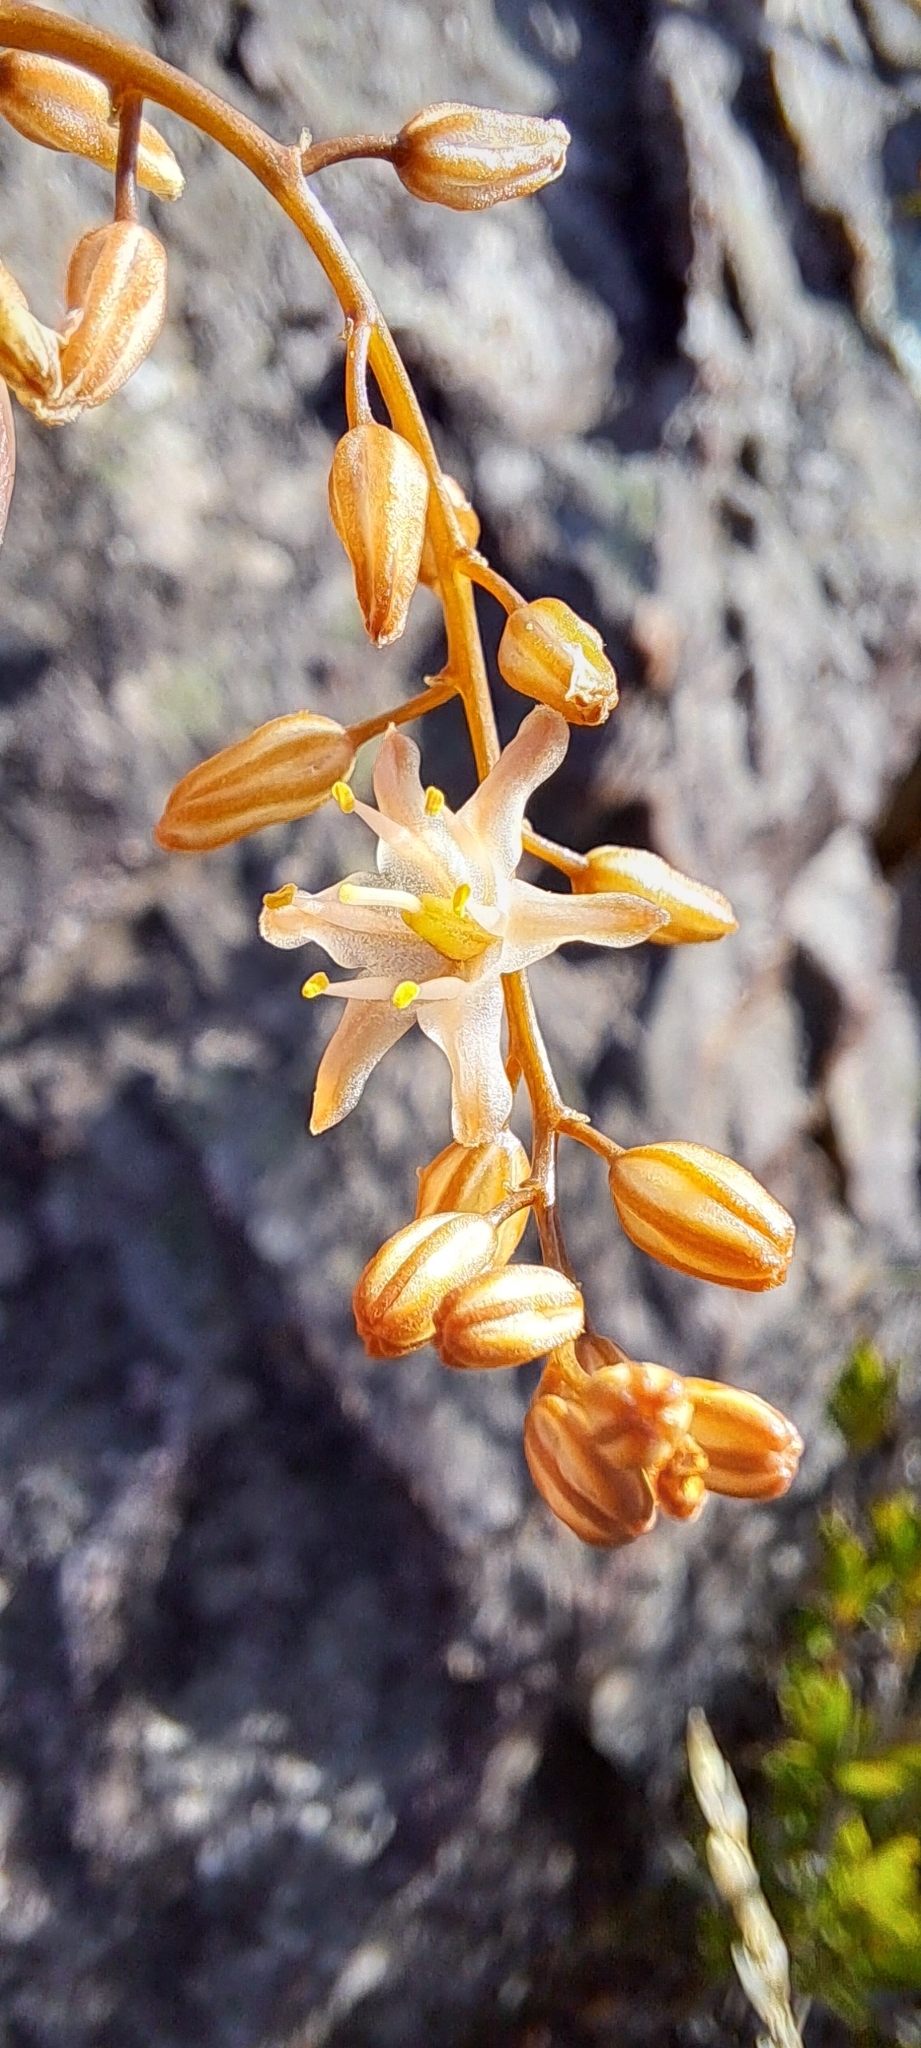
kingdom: Plantae
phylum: Tracheophyta
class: Liliopsida
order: Asparagales
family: Asparagaceae
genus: Drimia
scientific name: Drimia salteri
